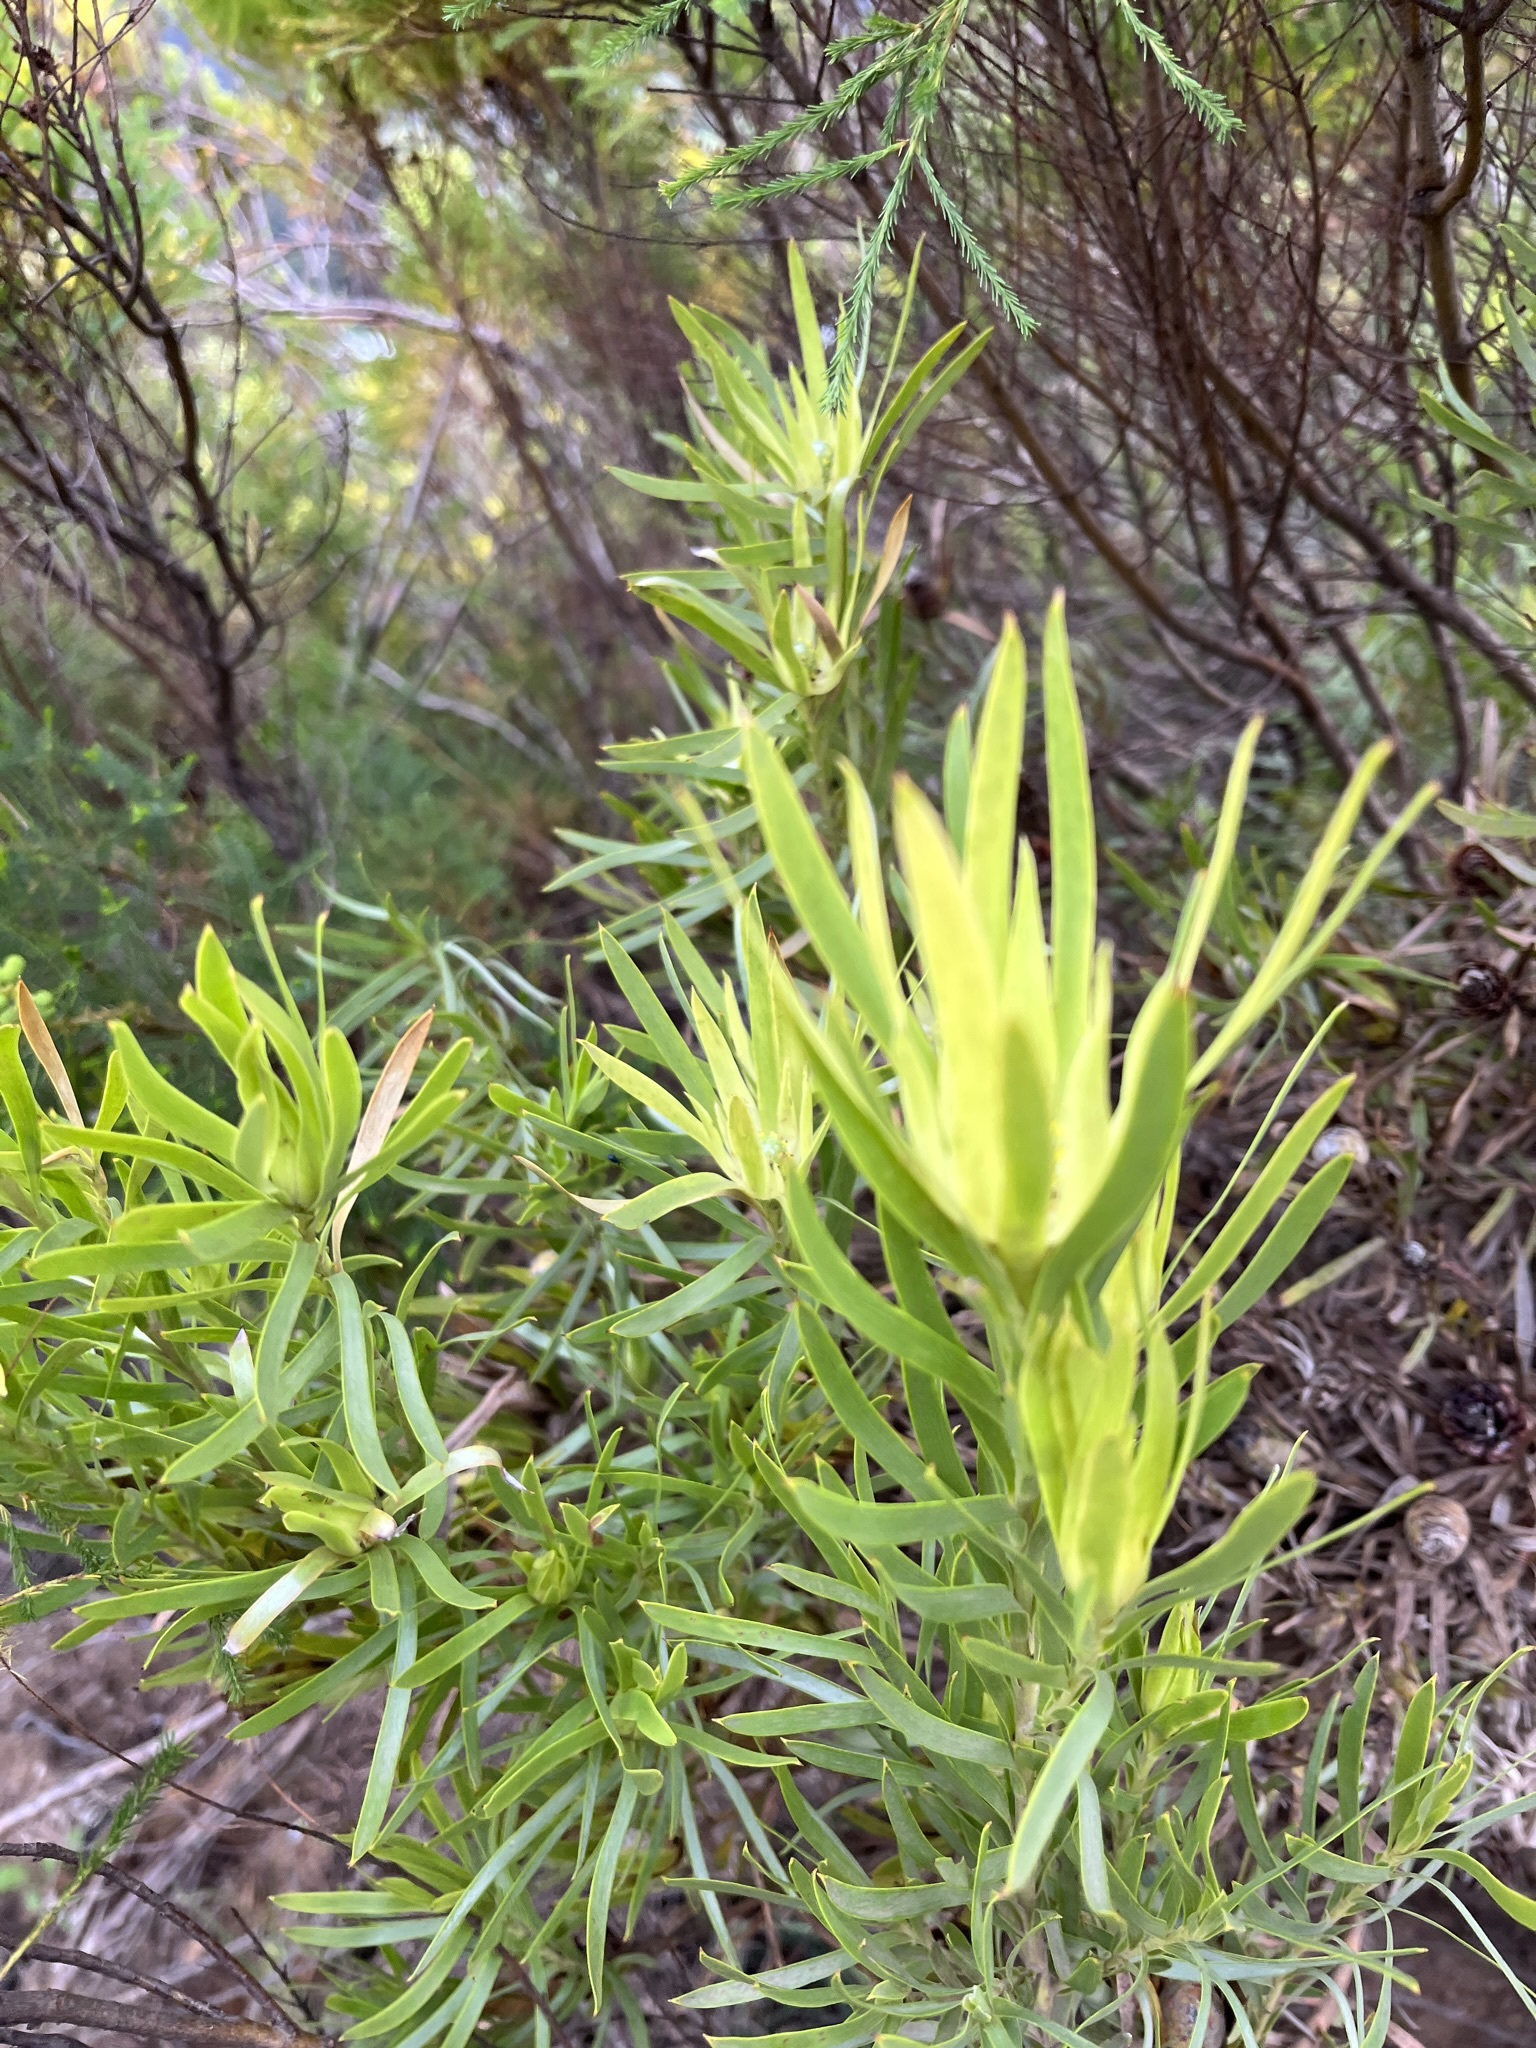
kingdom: Plantae
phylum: Tracheophyta
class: Magnoliopsida
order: Proteales
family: Proteaceae
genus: Leucadendron
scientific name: Leucadendron salignum
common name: Common sunshine conebush
